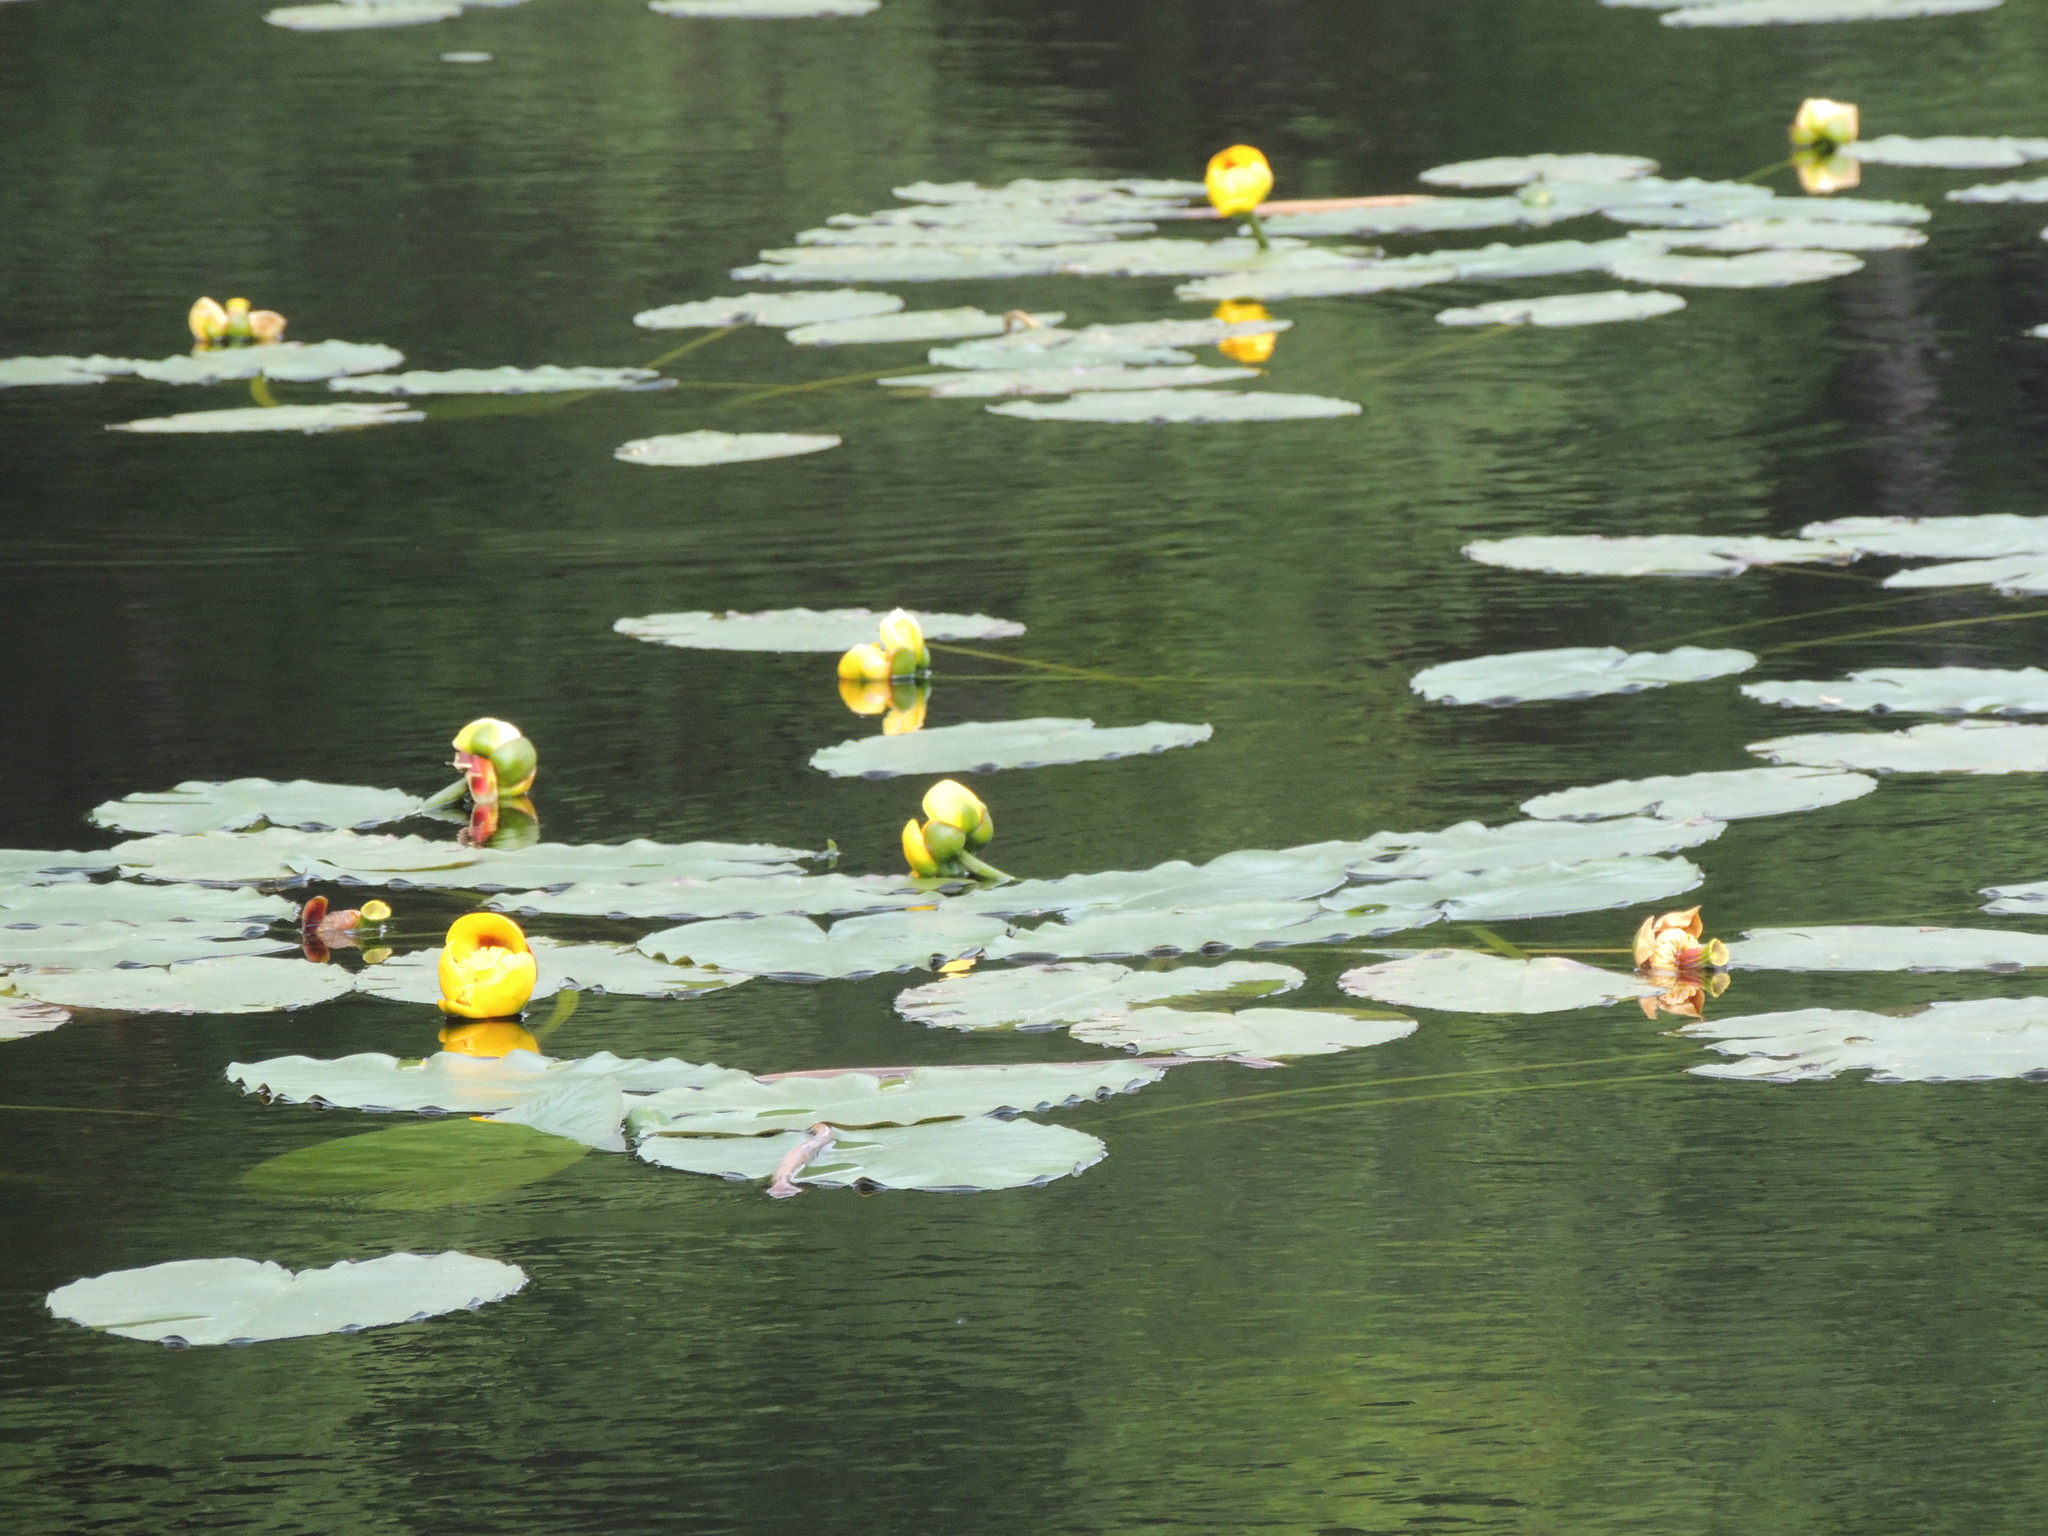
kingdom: Plantae
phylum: Tracheophyta
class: Magnoliopsida
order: Nymphaeales
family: Nymphaeaceae
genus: Nuphar
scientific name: Nuphar variegata
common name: Beaver-root
